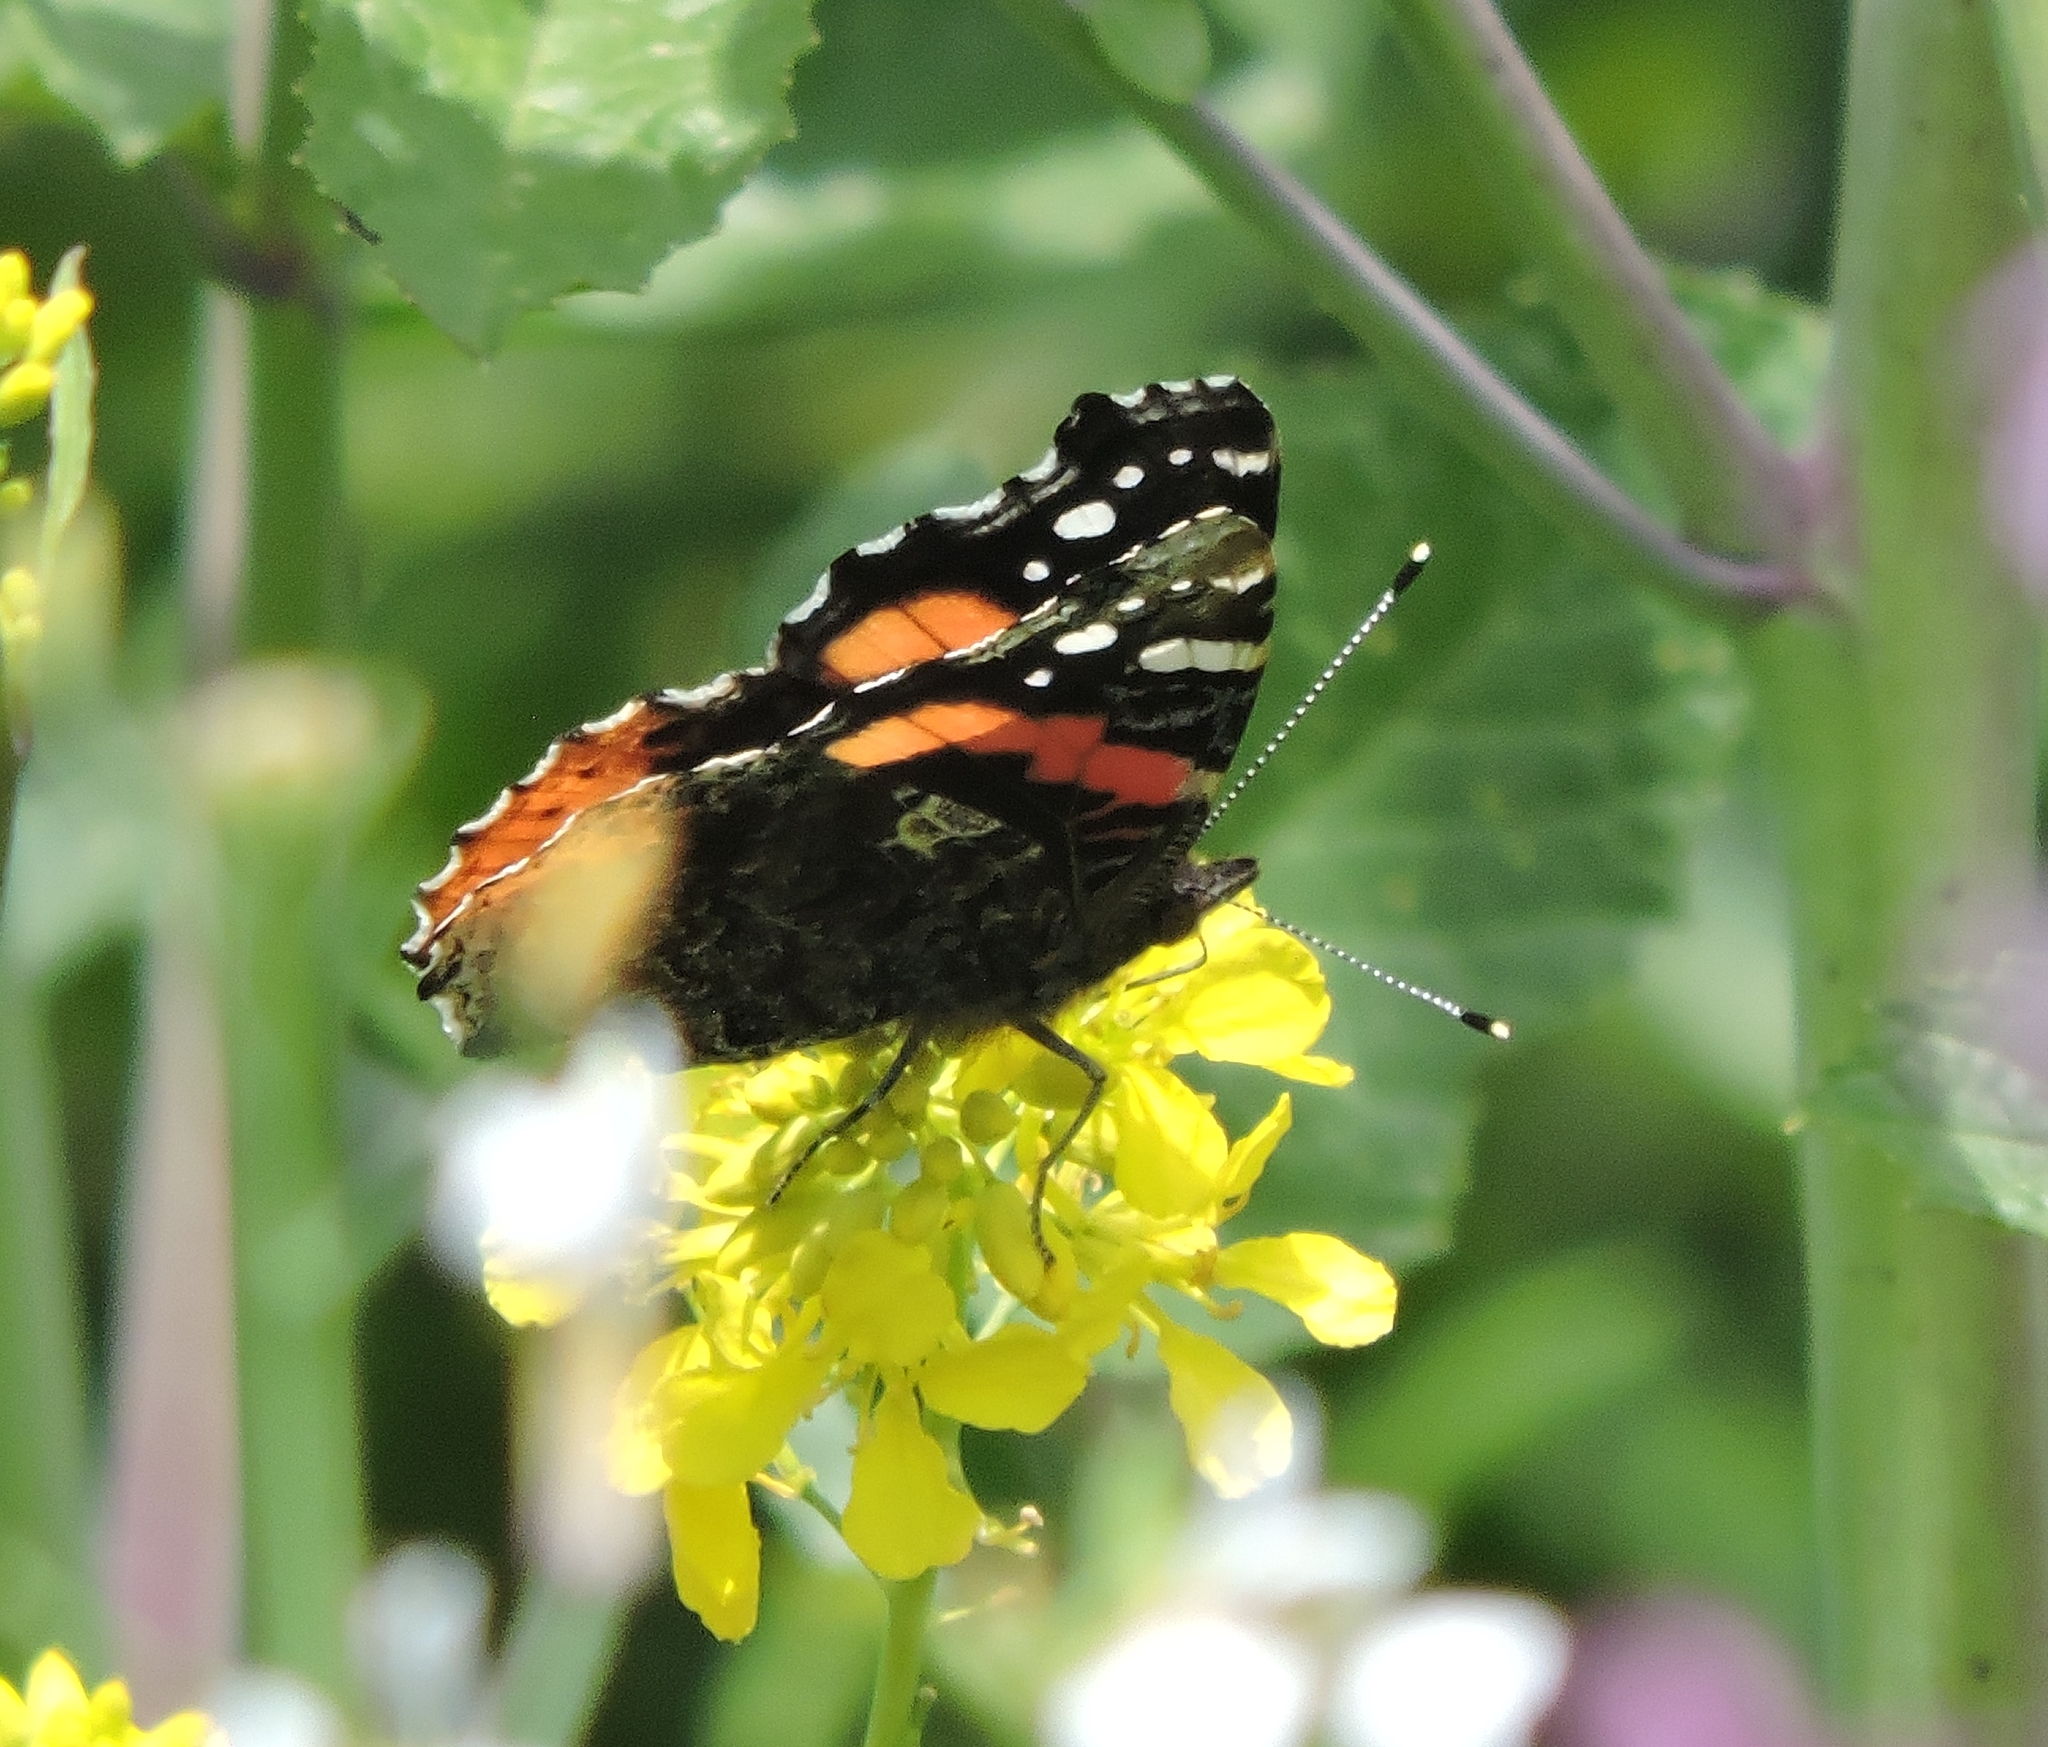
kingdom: Animalia
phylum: Arthropoda
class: Insecta
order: Lepidoptera
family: Nymphalidae
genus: Vanessa
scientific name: Vanessa atalanta
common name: Red admiral
